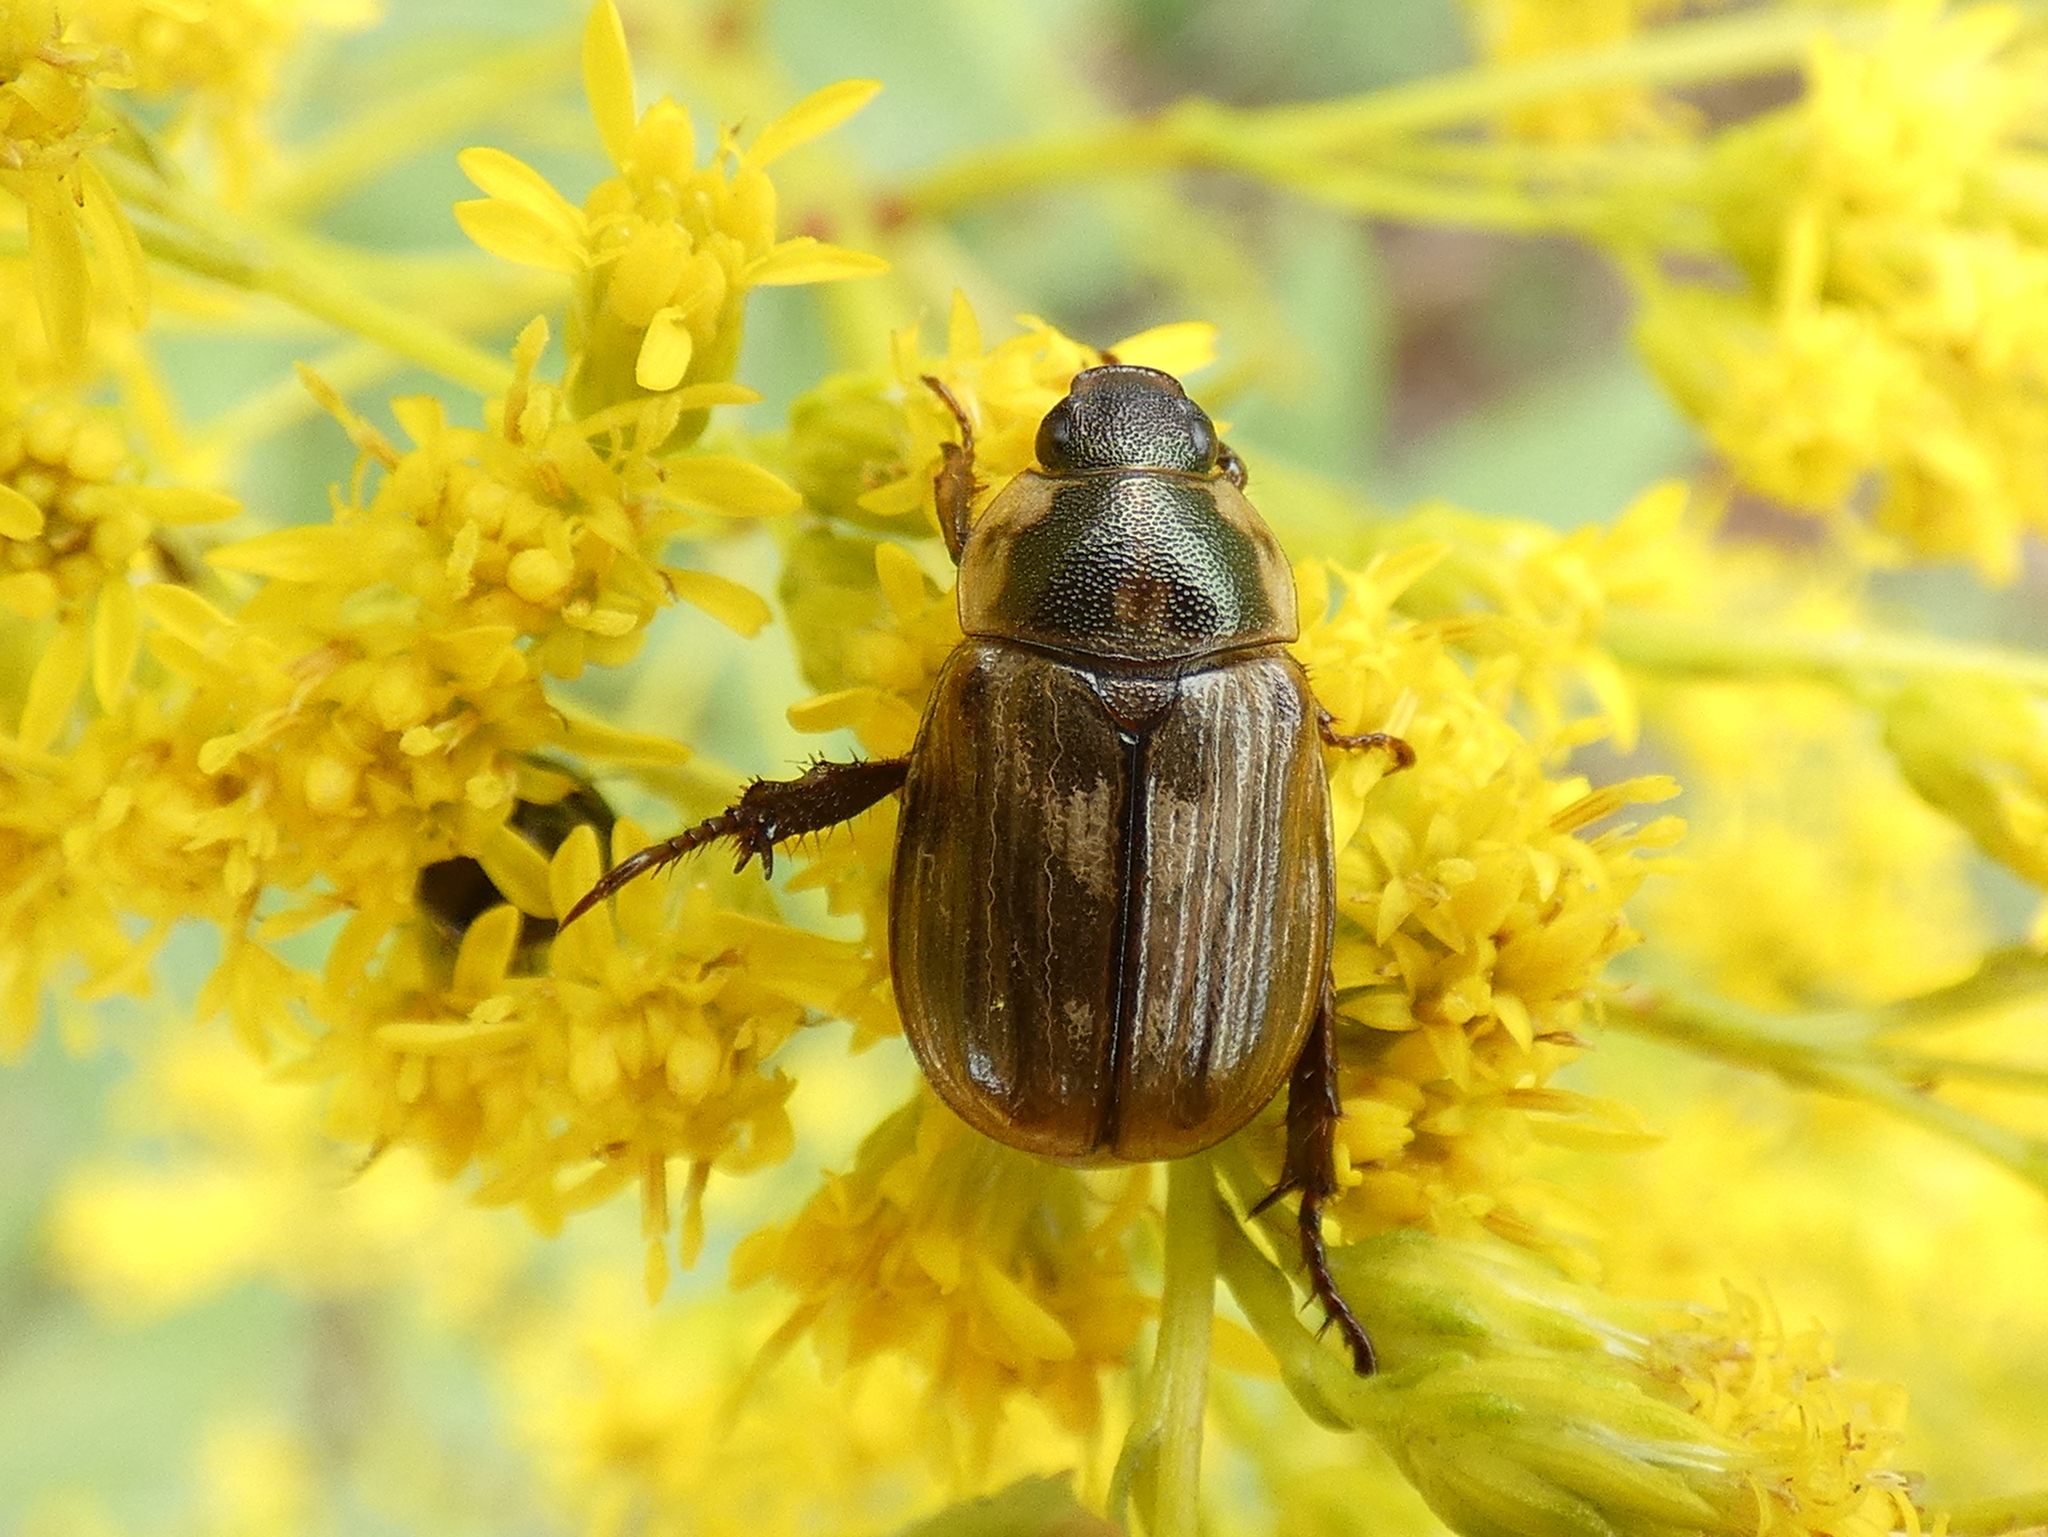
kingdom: Animalia
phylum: Arthropoda
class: Insecta
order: Coleoptera
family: Scarabaeidae
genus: Exomala
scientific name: Exomala orientalis
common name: Oriental beetle
